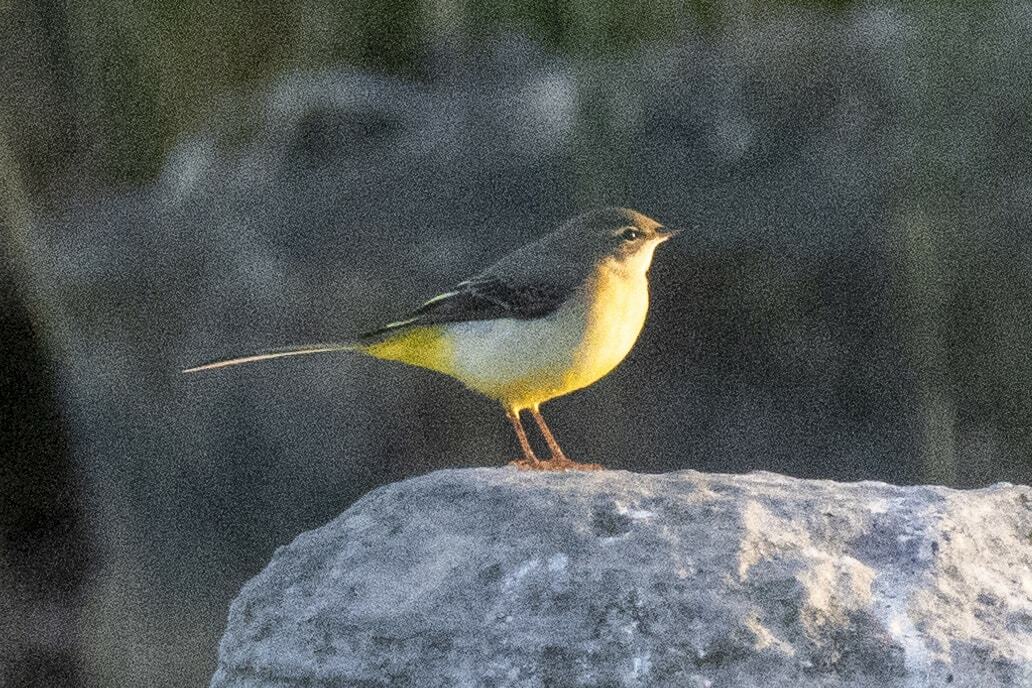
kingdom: Animalia
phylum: Chordata
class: Aves
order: Passeriformes
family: Motacillidae
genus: Motacilla
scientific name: Motacilla cinerea
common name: Grey wagtail
